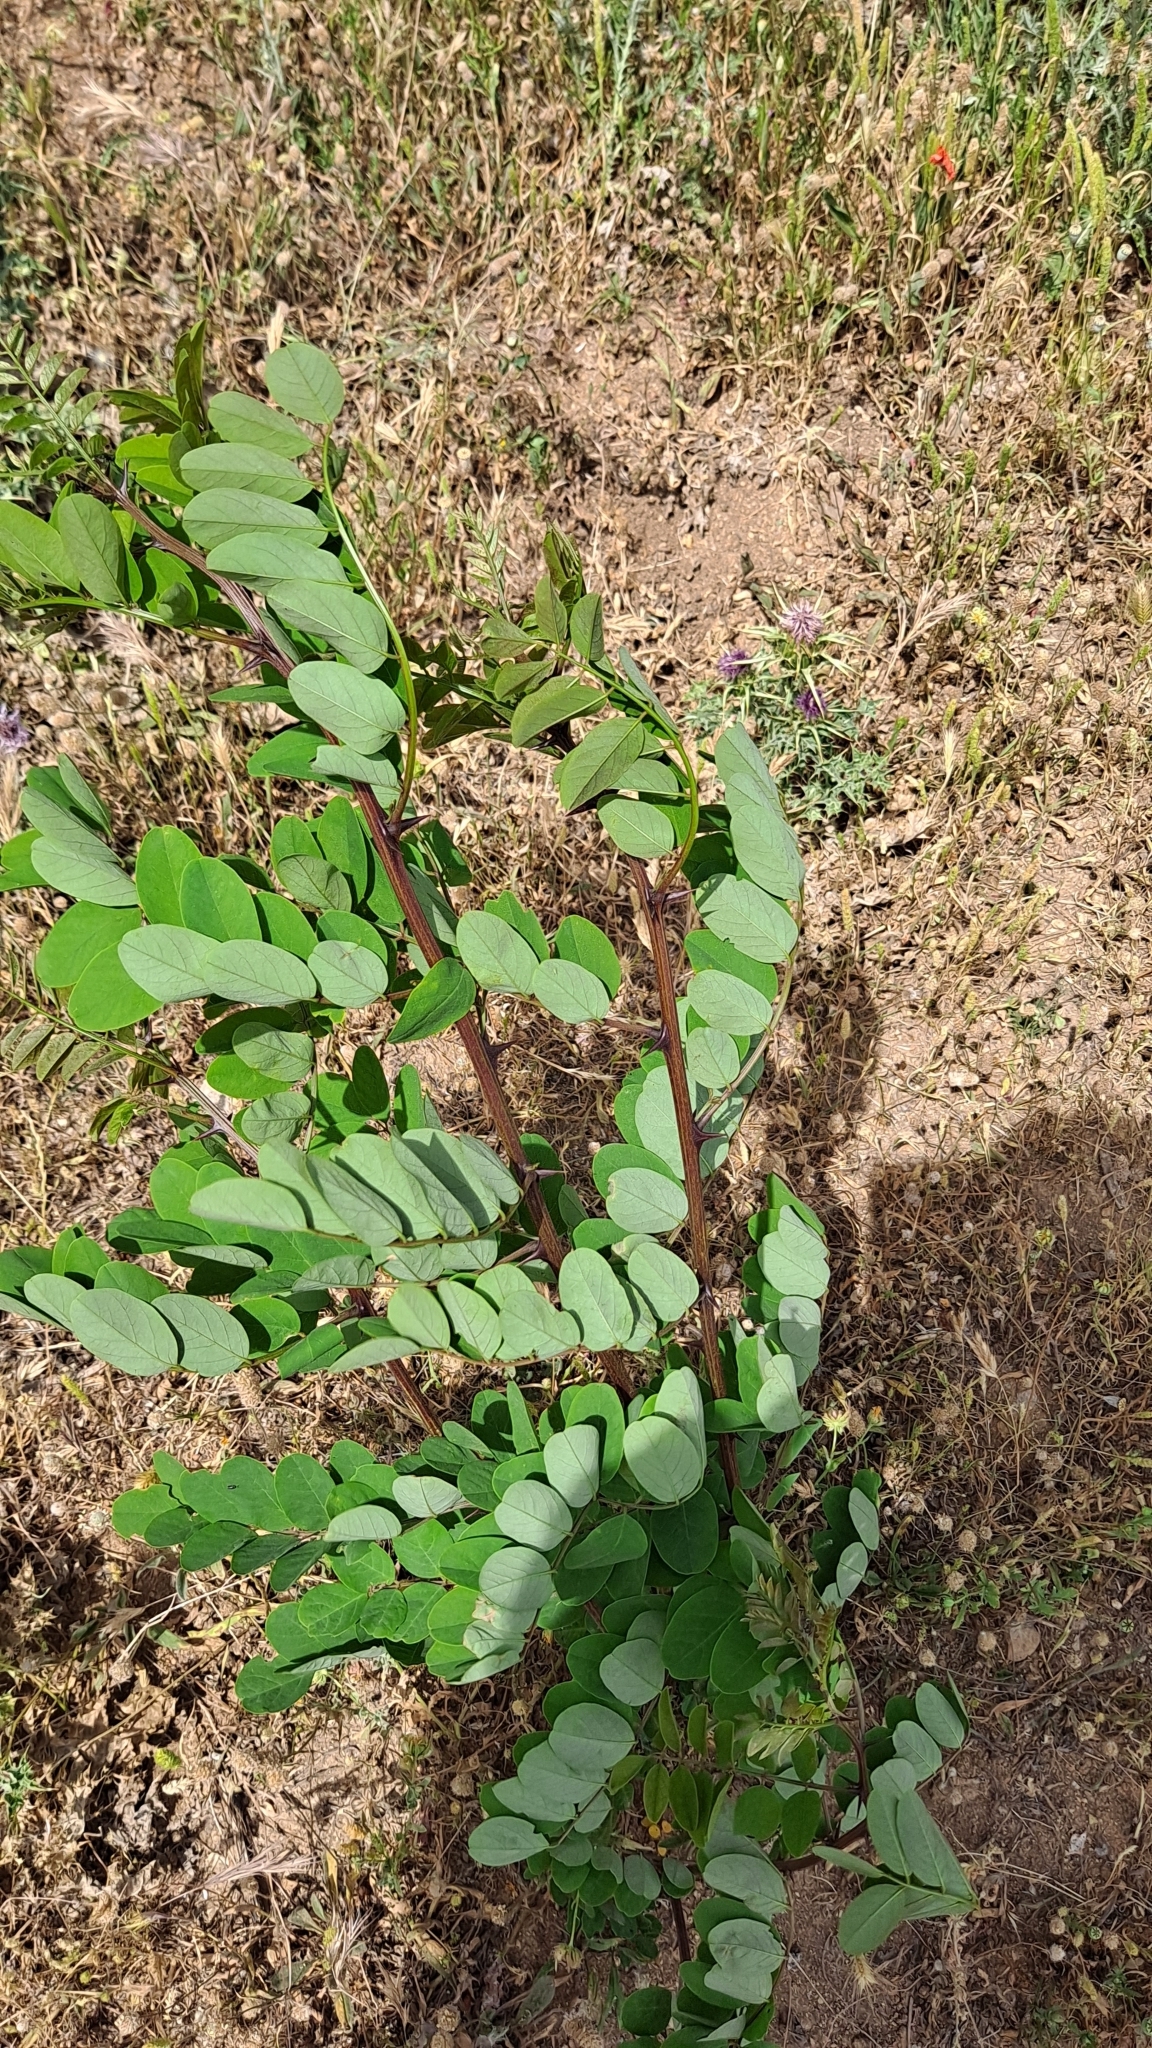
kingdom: Plantae
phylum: Tracheophyta
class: Magnoliopsida
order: Fabales
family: Fabaceae
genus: Robinia
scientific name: Robinia pseudoacacia
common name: Black locust
